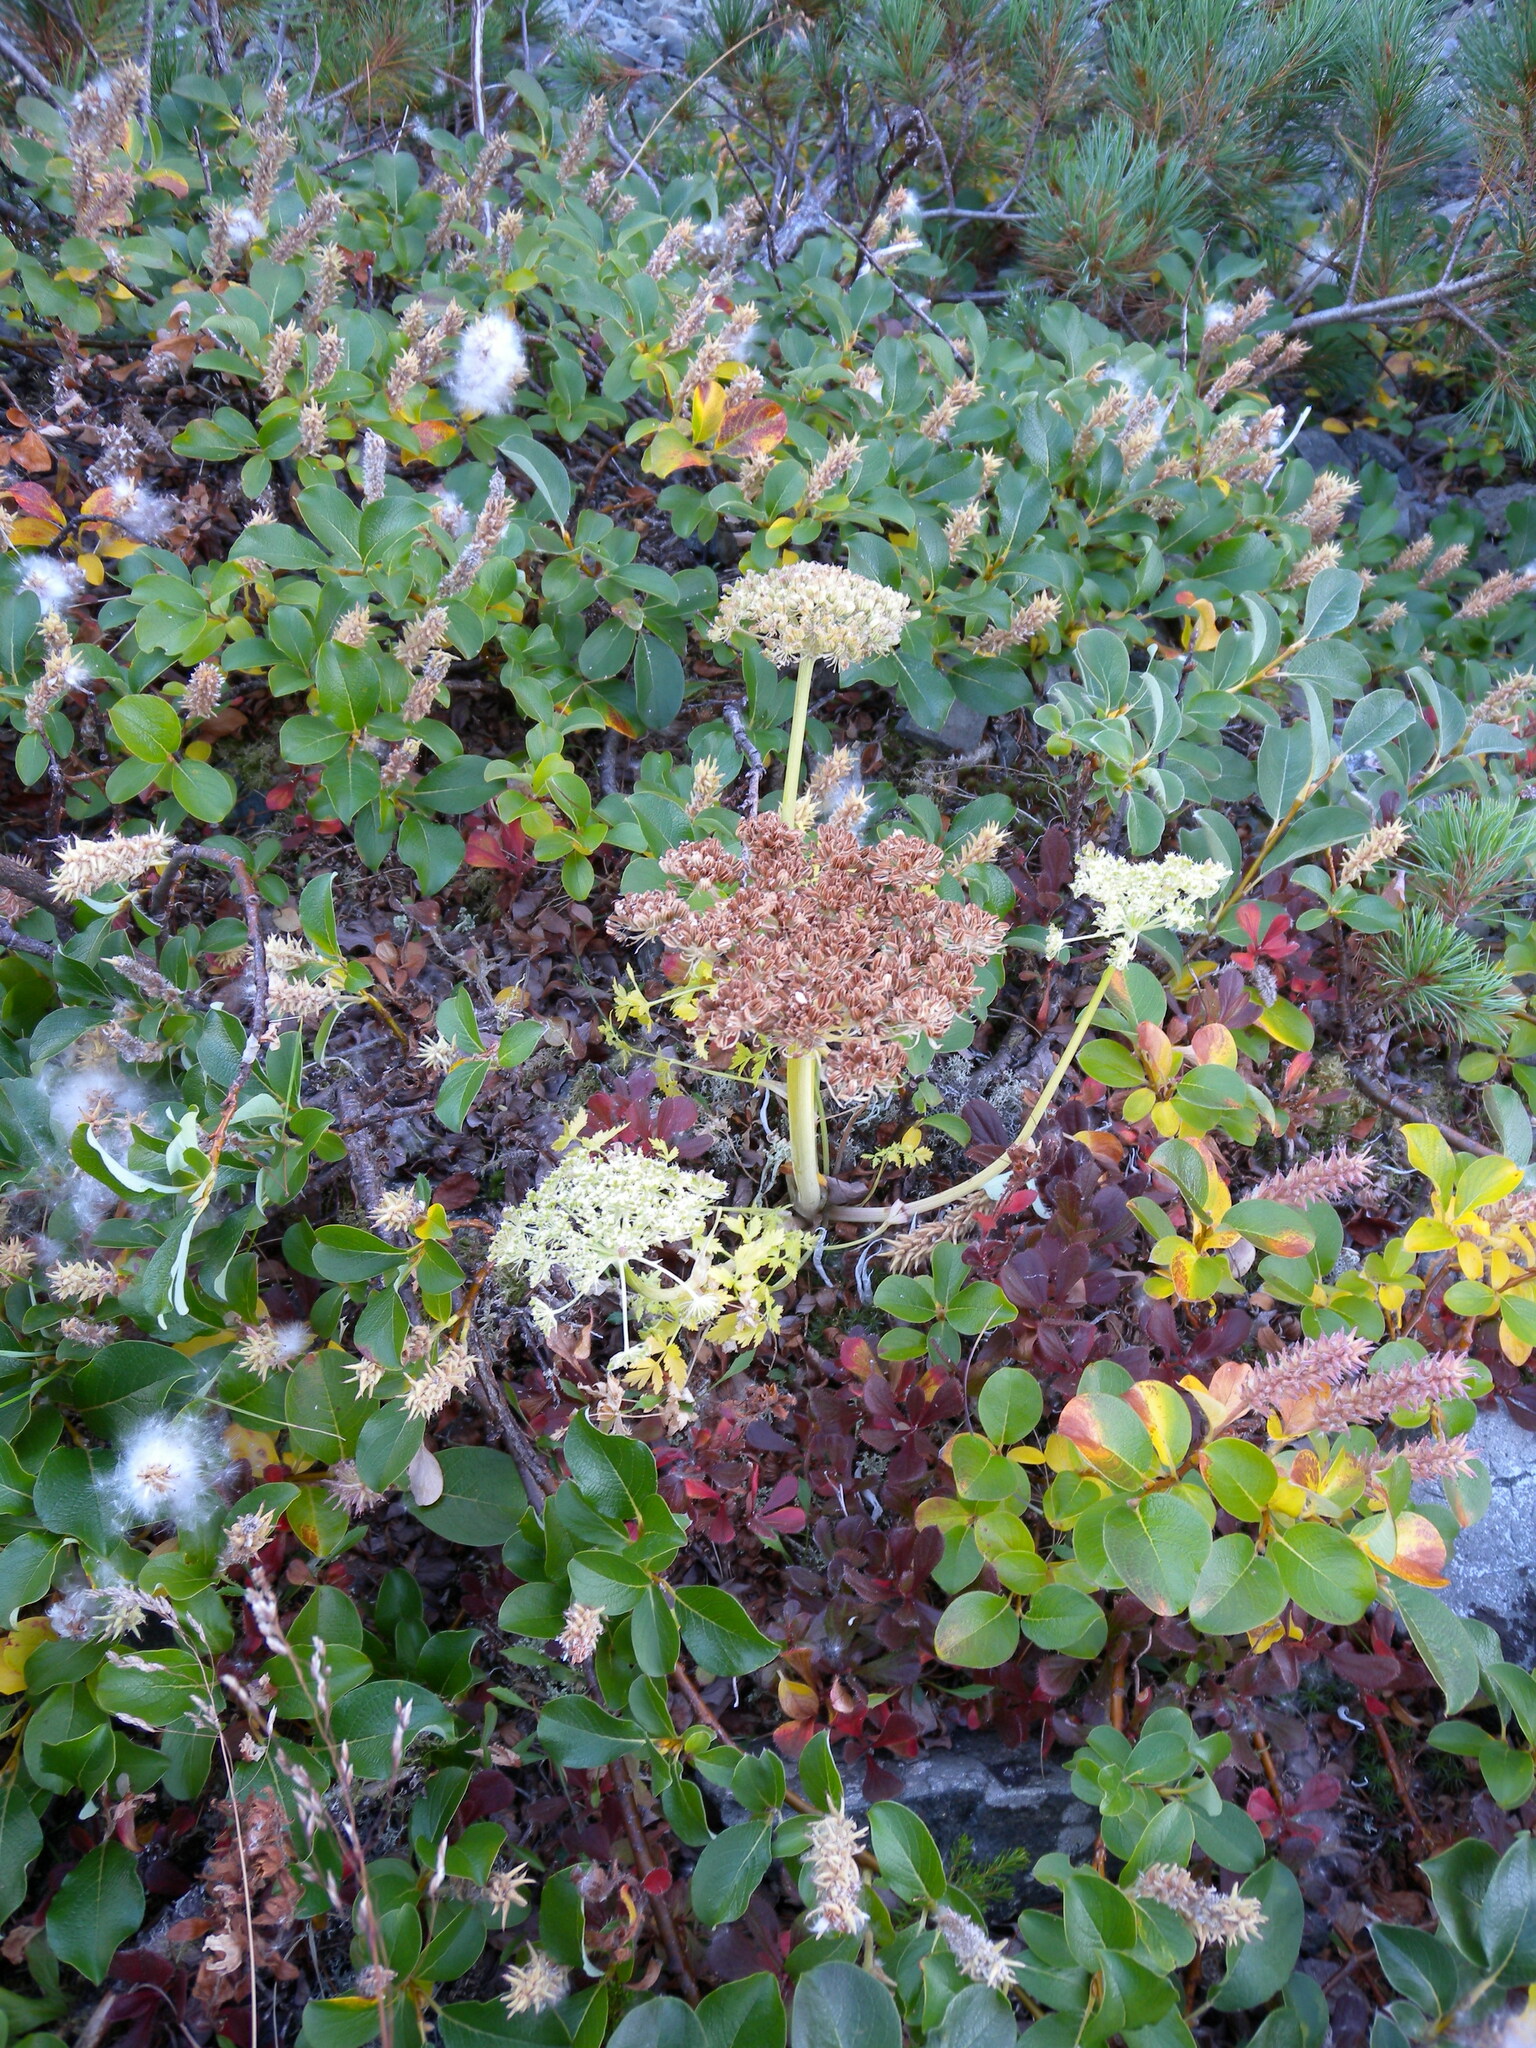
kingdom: Plantae
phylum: Tracheophyta
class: Magnoliopsida
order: Apiales
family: Apiaceae
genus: Magadania
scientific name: Magadania olaensis
